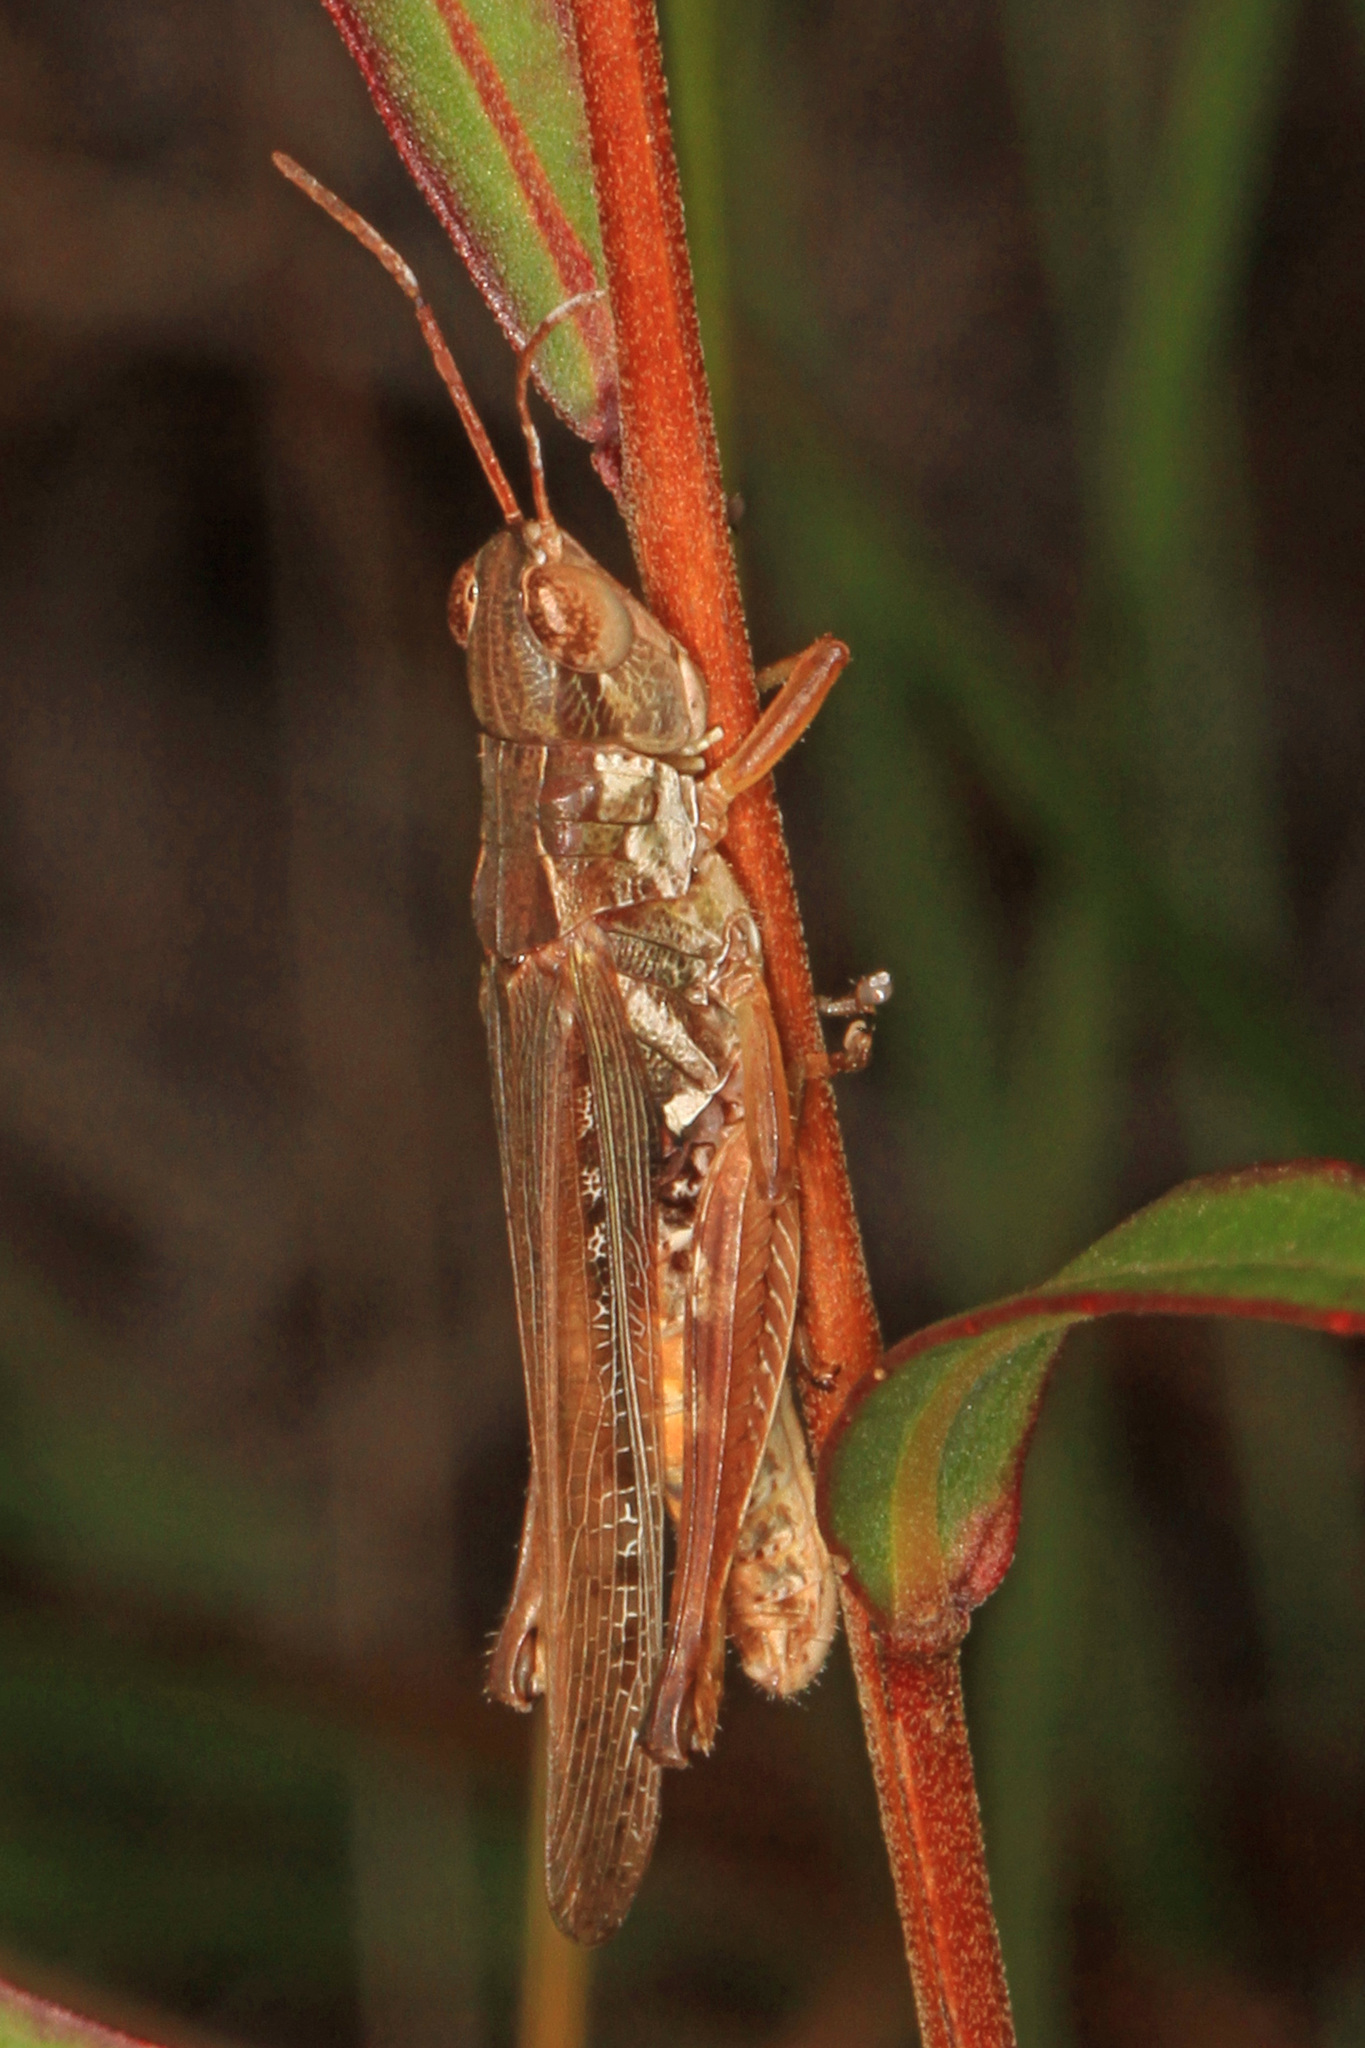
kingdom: Animalia
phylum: Arthropoda
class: Insecta
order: Orthoptera
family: Acrididae
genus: Orphulella
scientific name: Orphulella pelidna
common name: Spotted-wing grasshopper
